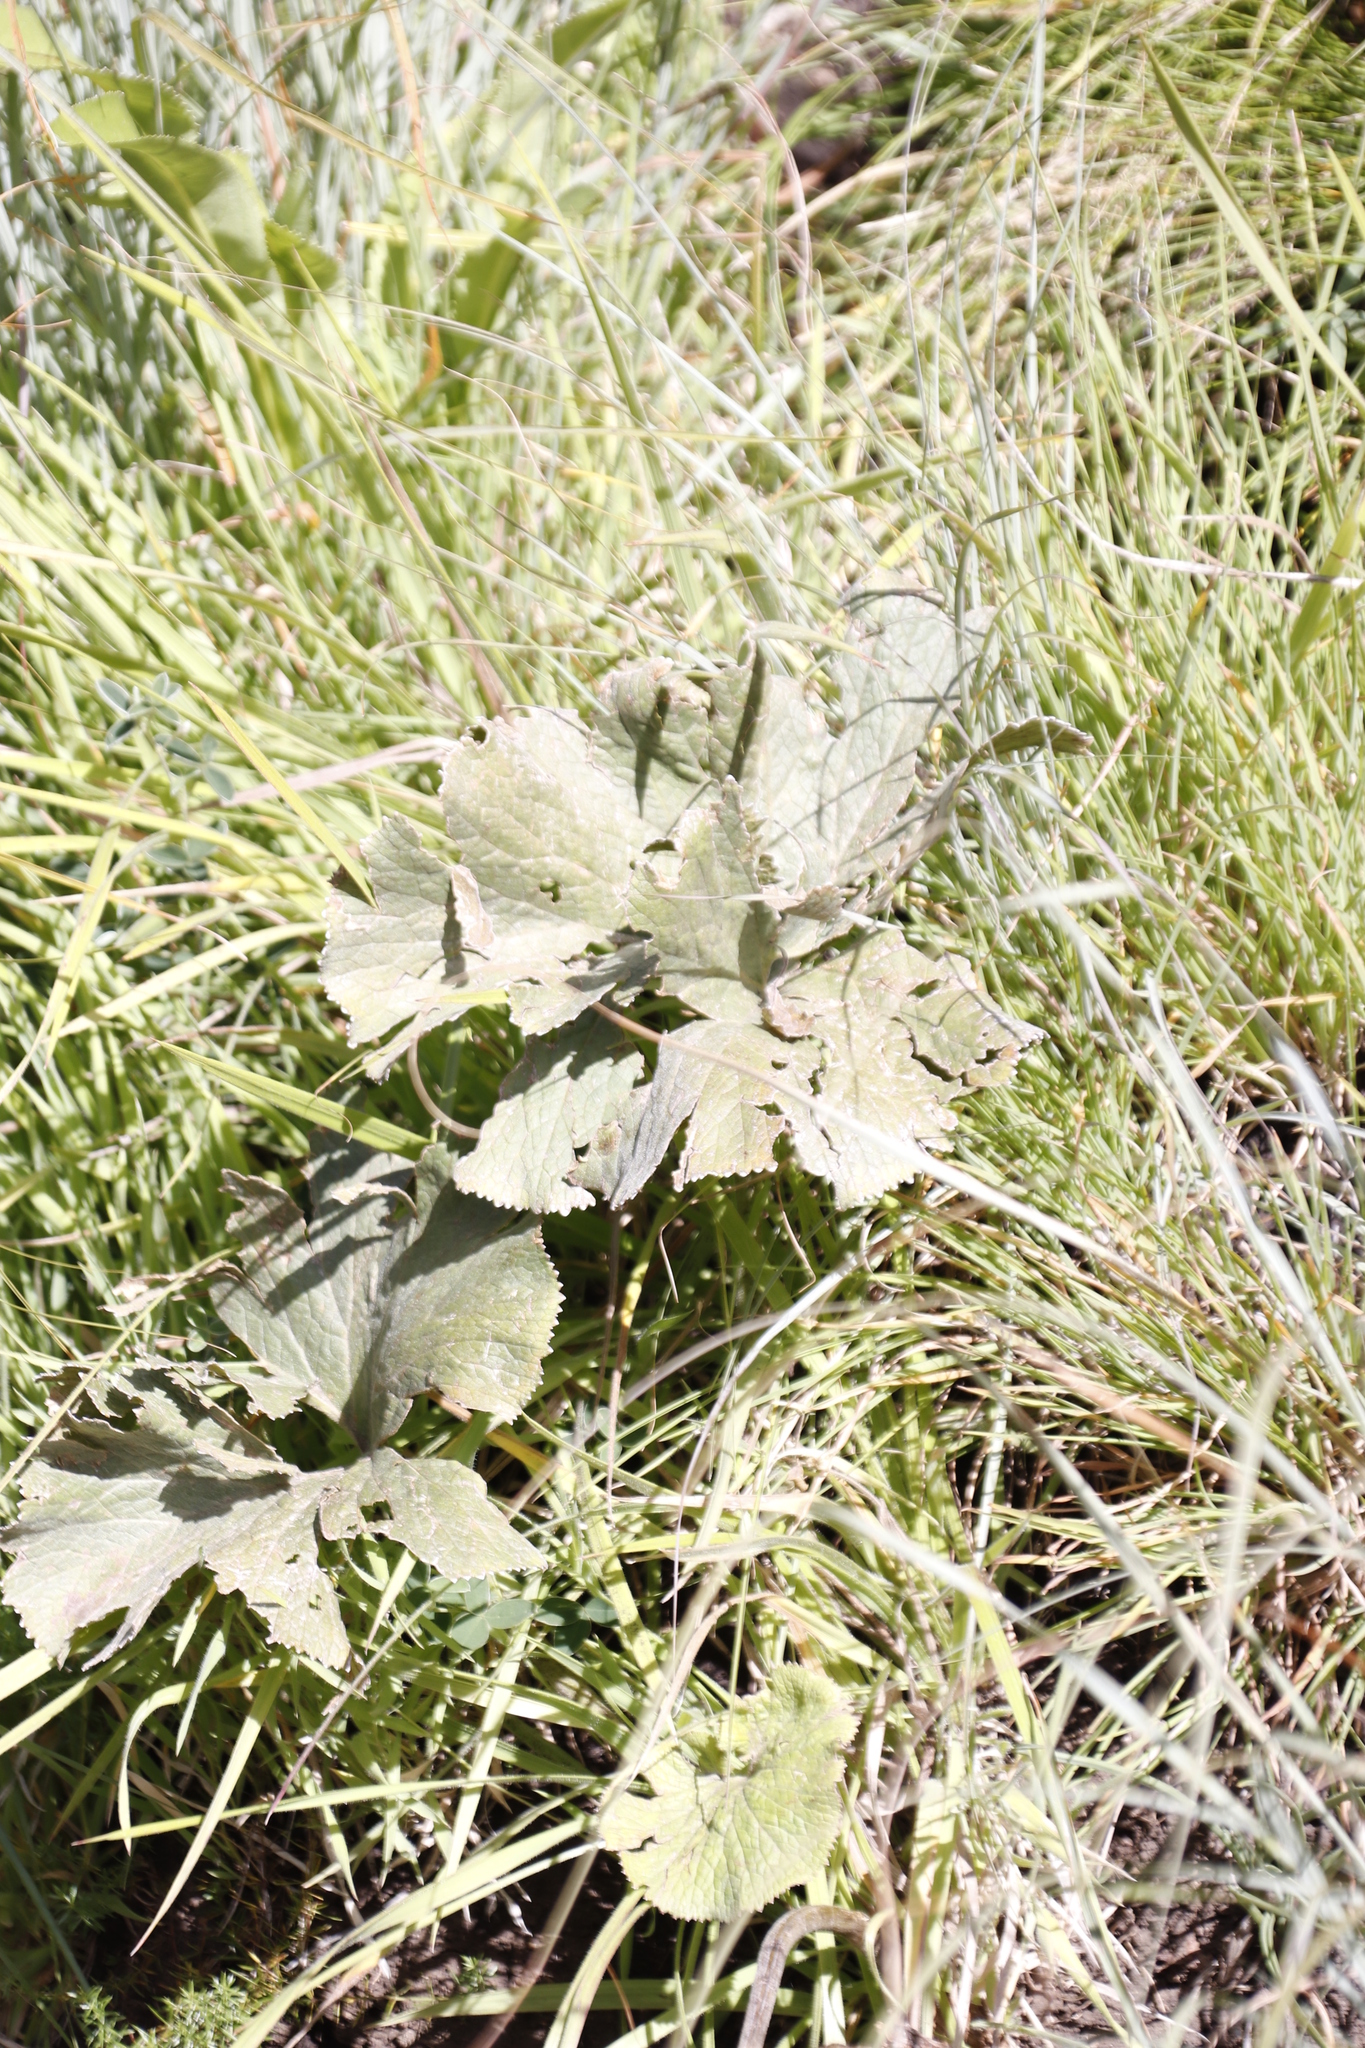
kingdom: Plantae
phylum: Tracheophyta
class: Magnoliopsida
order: Gunnerales
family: Gunneraceae
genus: Gunnera
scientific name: Gunnera perpensa
